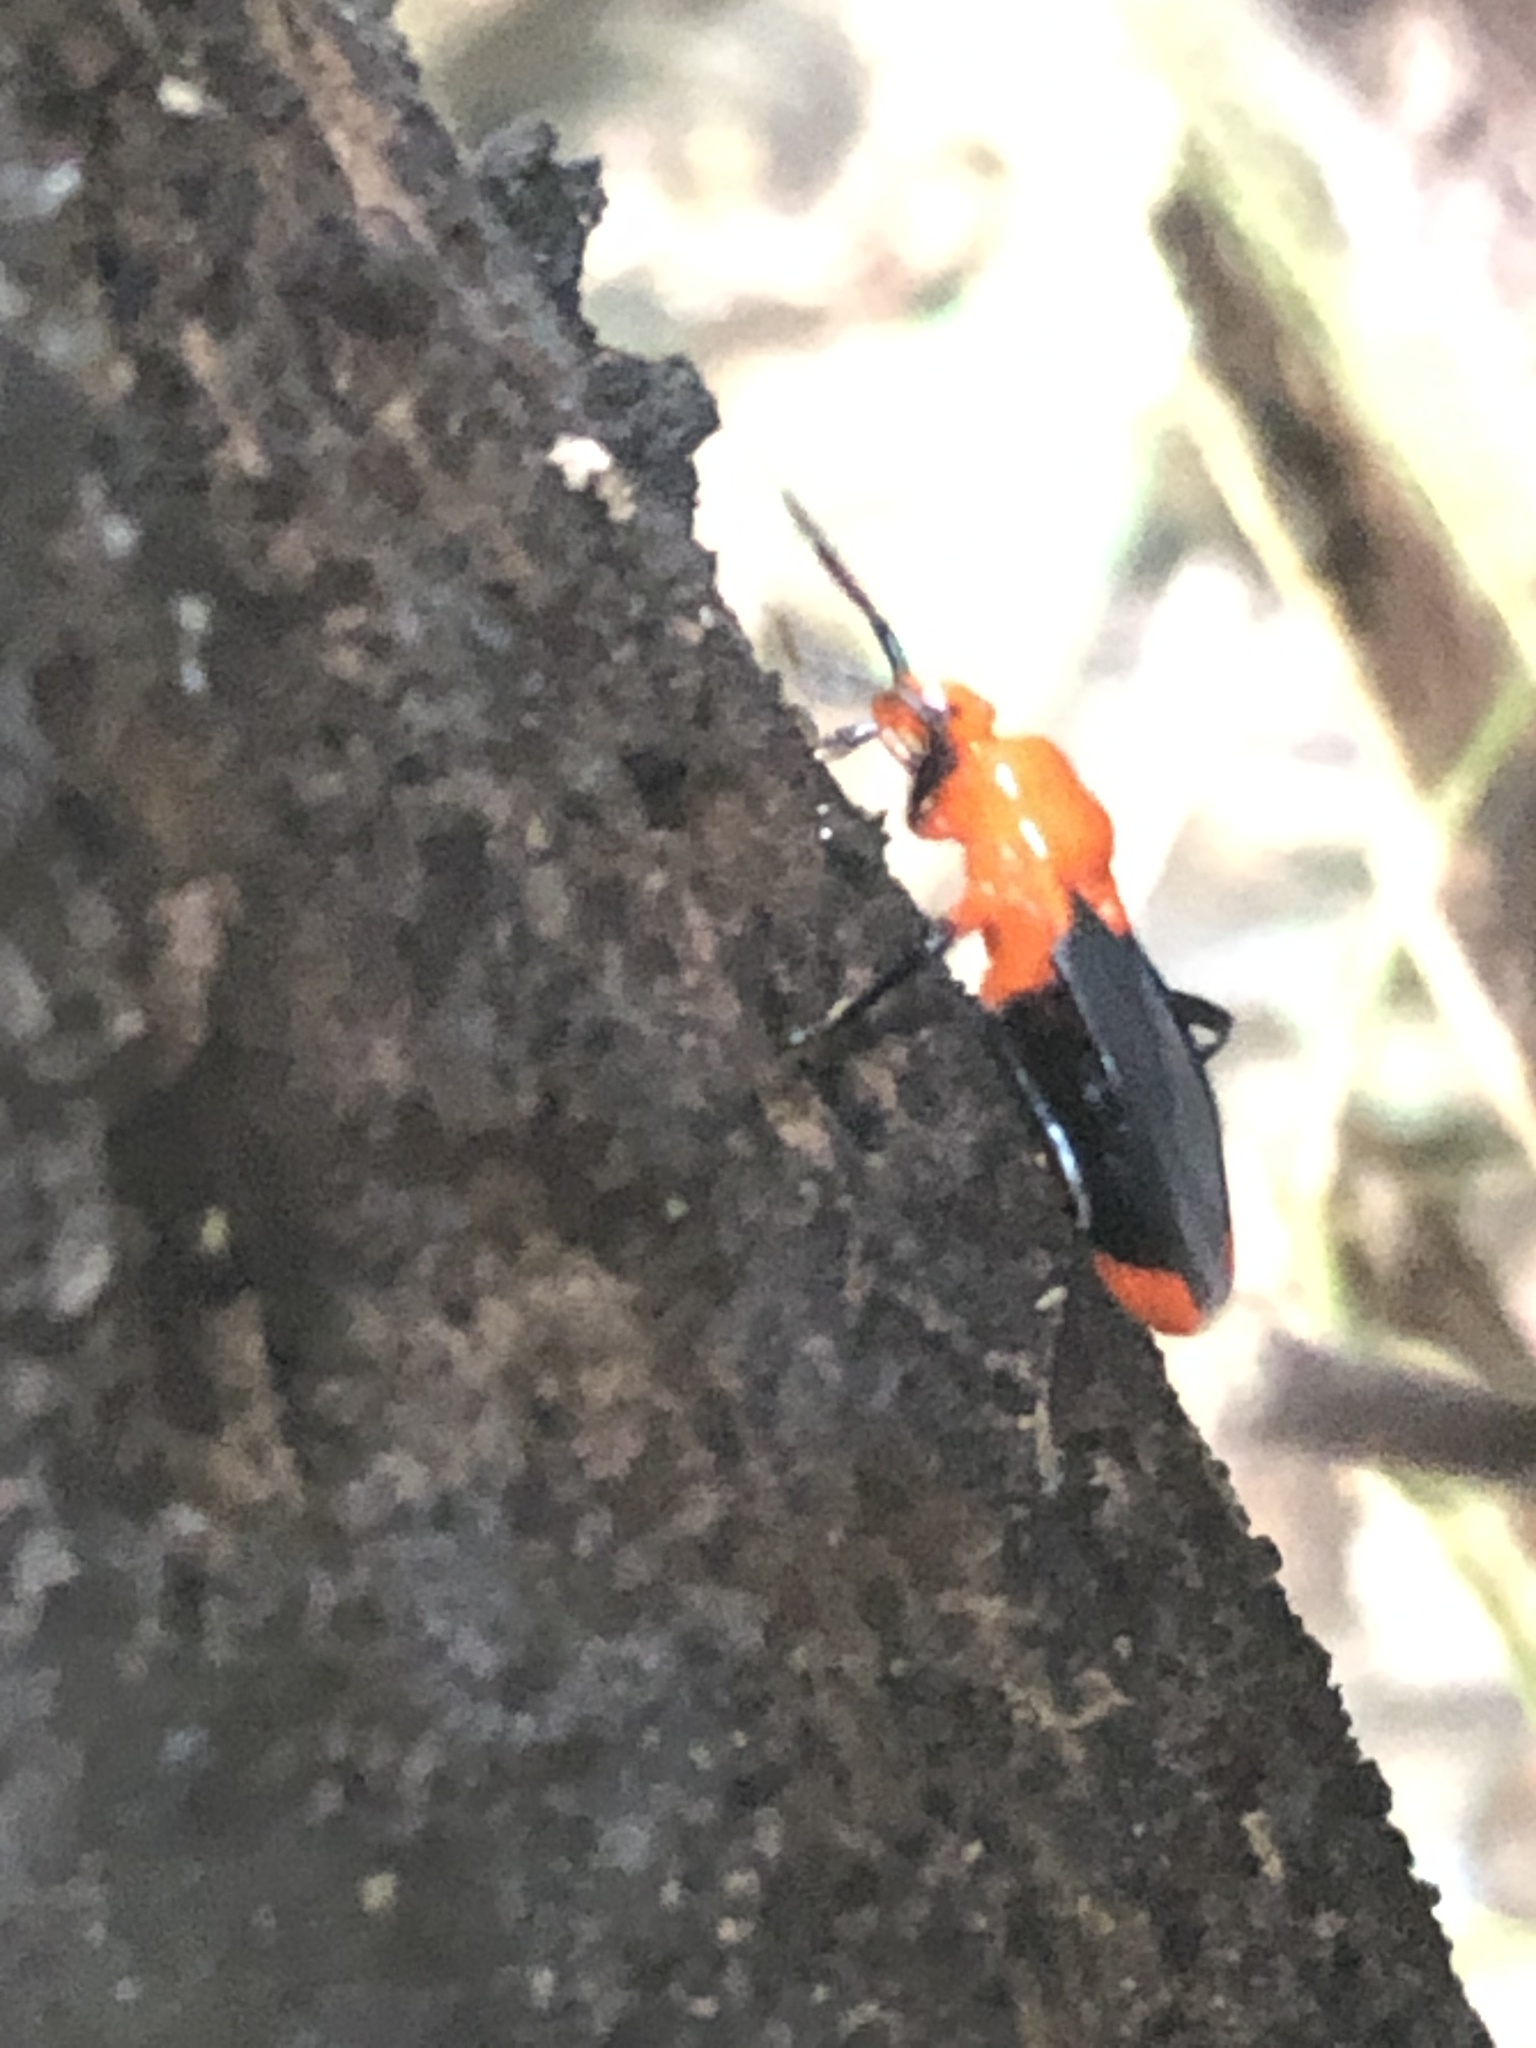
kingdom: Animalia
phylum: Arthropoda
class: Insecta
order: Hemiptera
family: Reduviidae
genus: Zirta
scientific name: Zirta hirticornis
